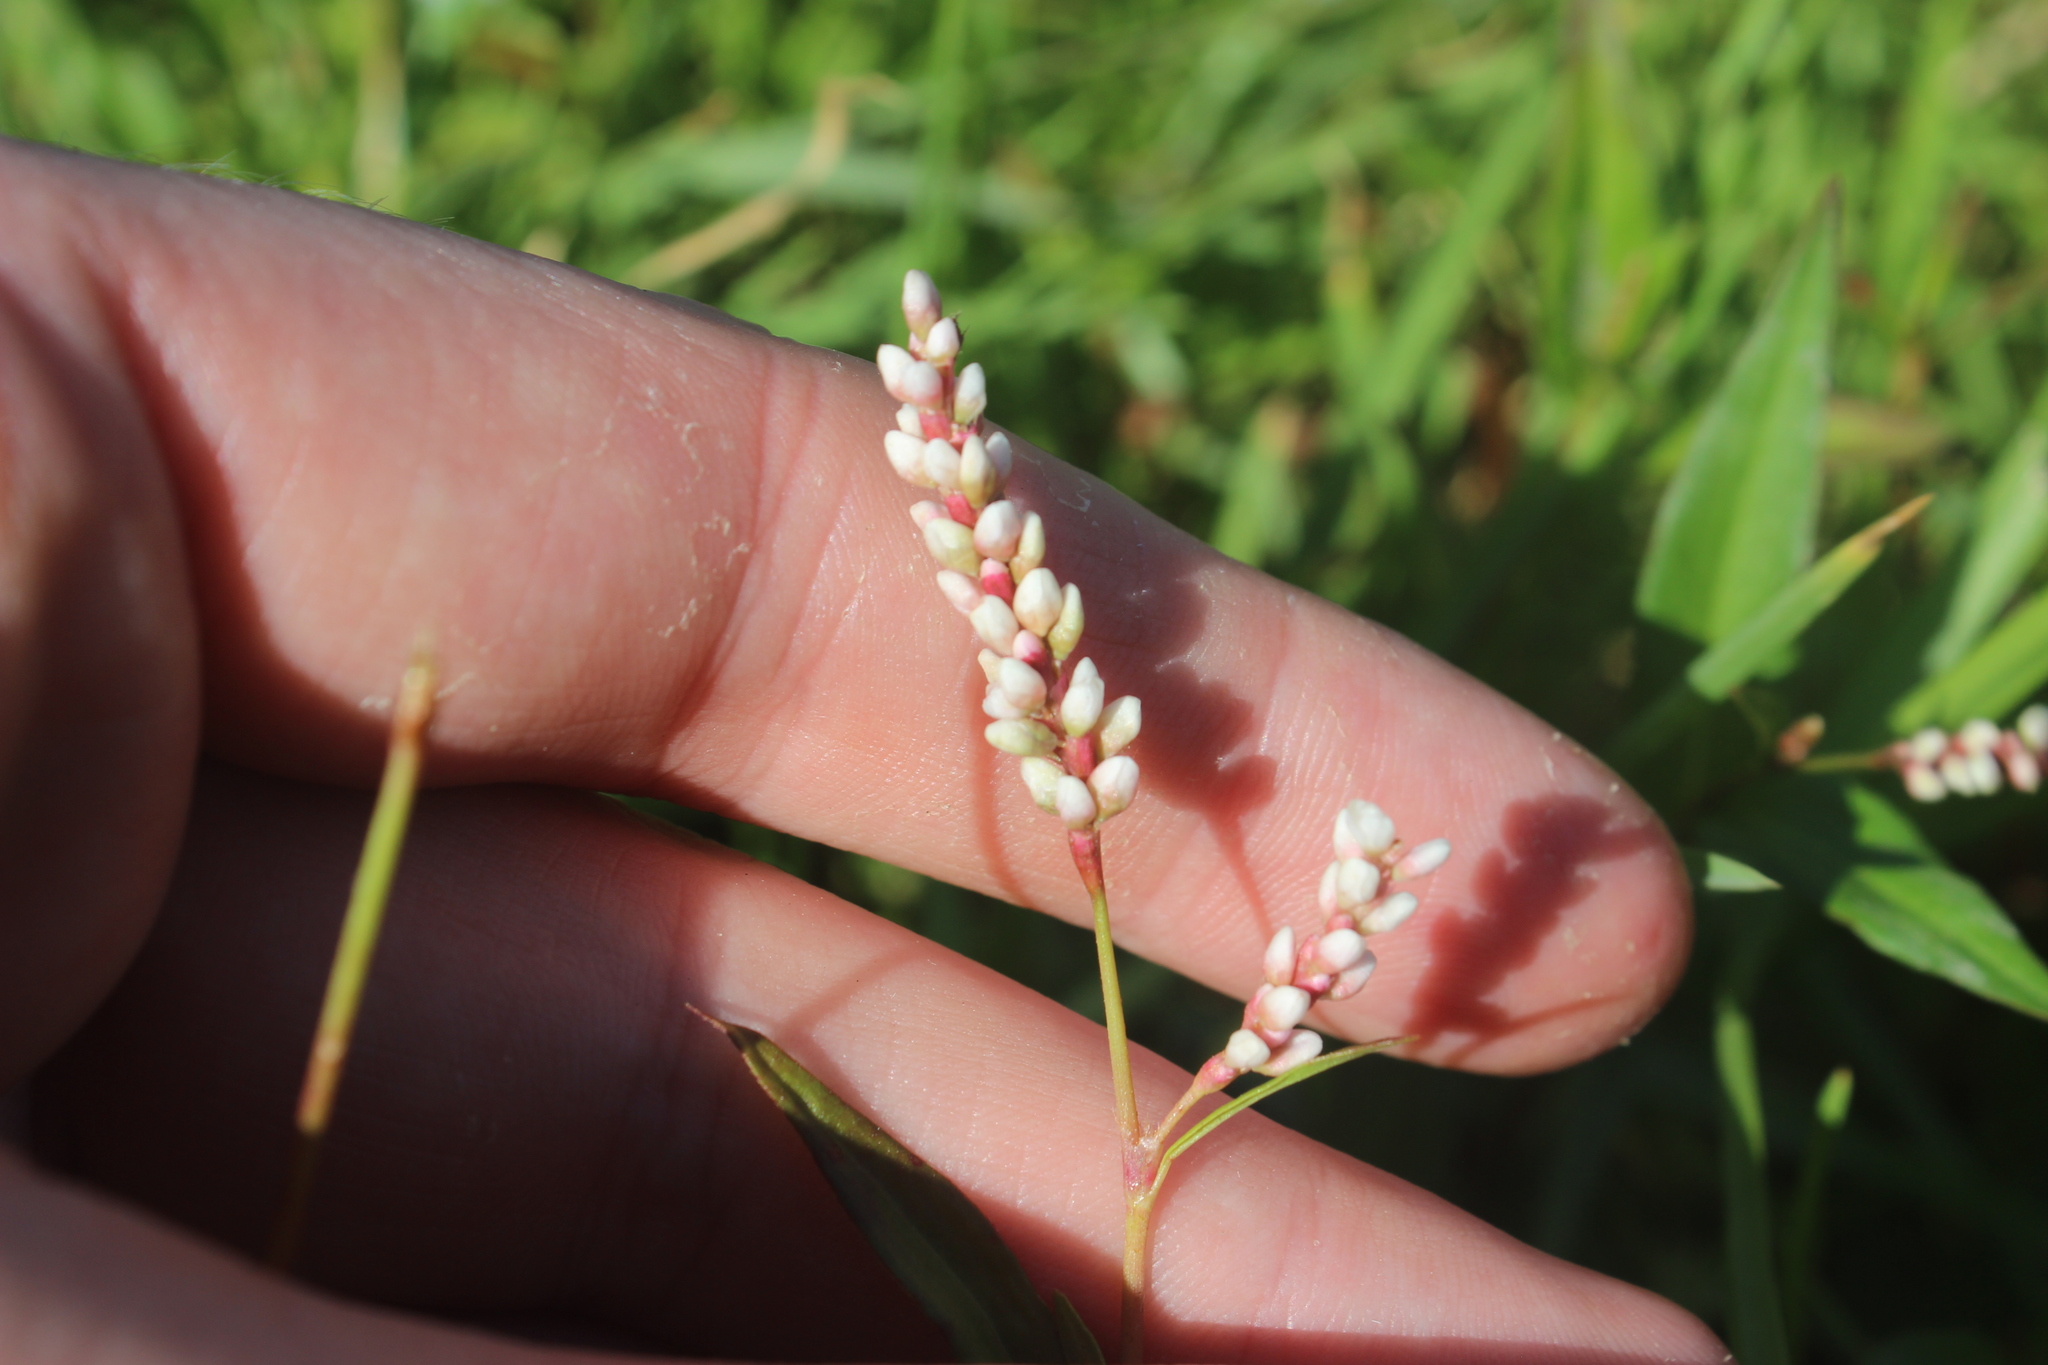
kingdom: Plantae
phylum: Tracheophyta
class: Magnoliopsida
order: Caryophyllales
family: Polygonaceae
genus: Persicaria
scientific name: Persicaria decipiens
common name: Willow-weed
